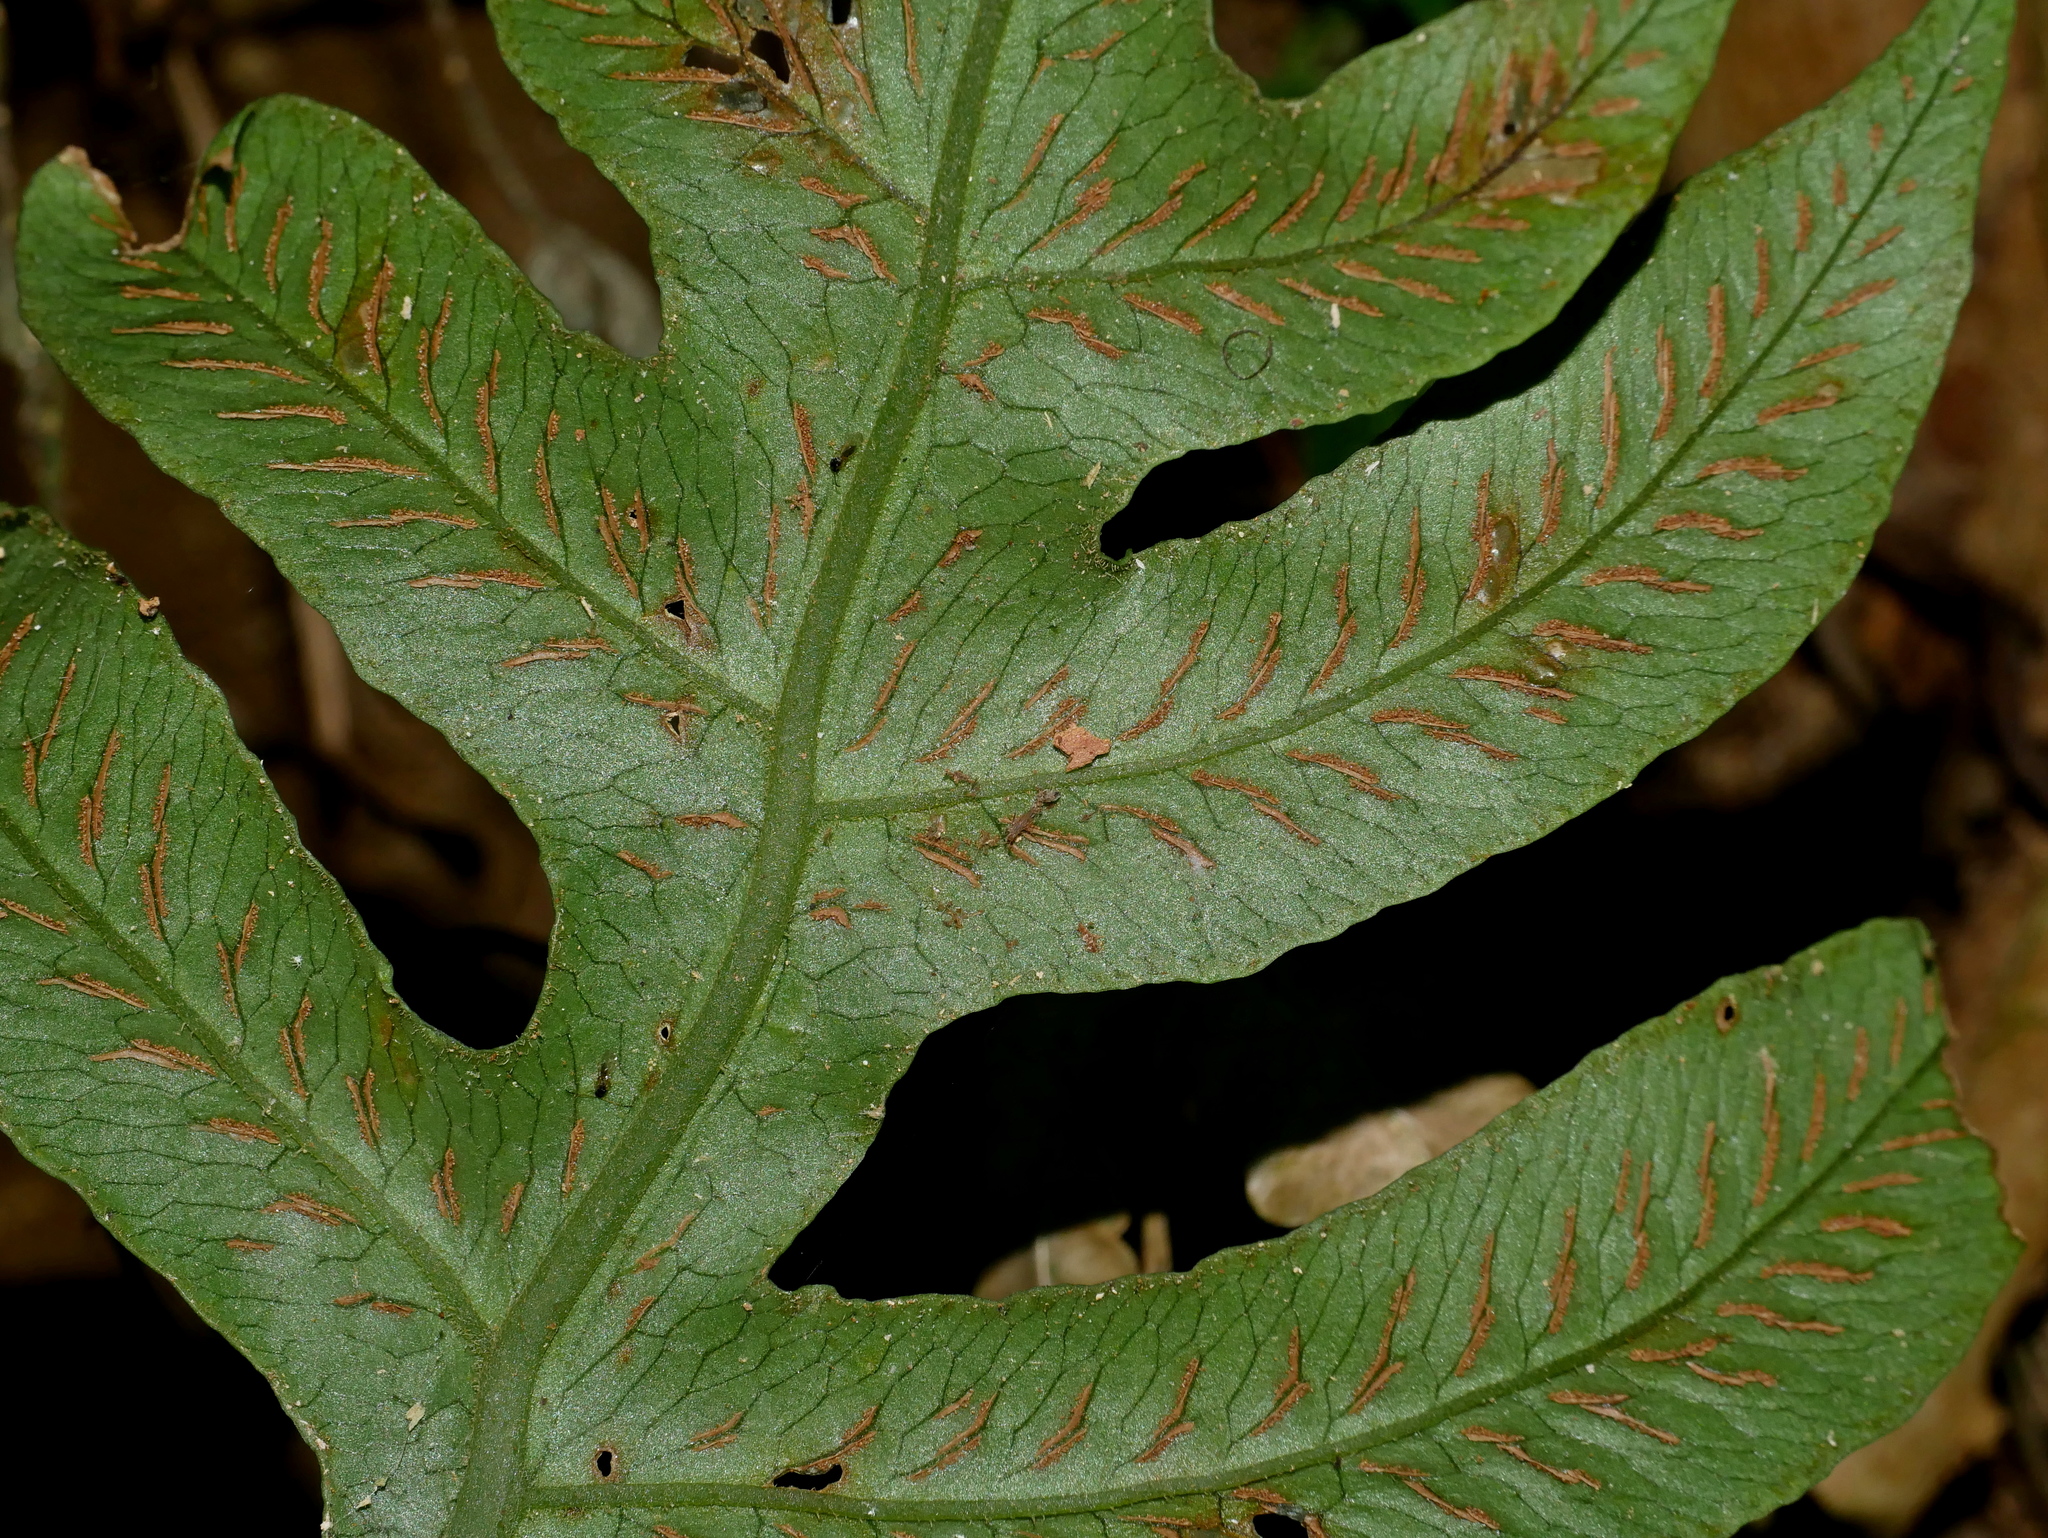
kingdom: Plantae
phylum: Tracheophyta
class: Polypodiopsida
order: Polypodiales
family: Athyriaceae
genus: Deparia
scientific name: Deparia formosana
